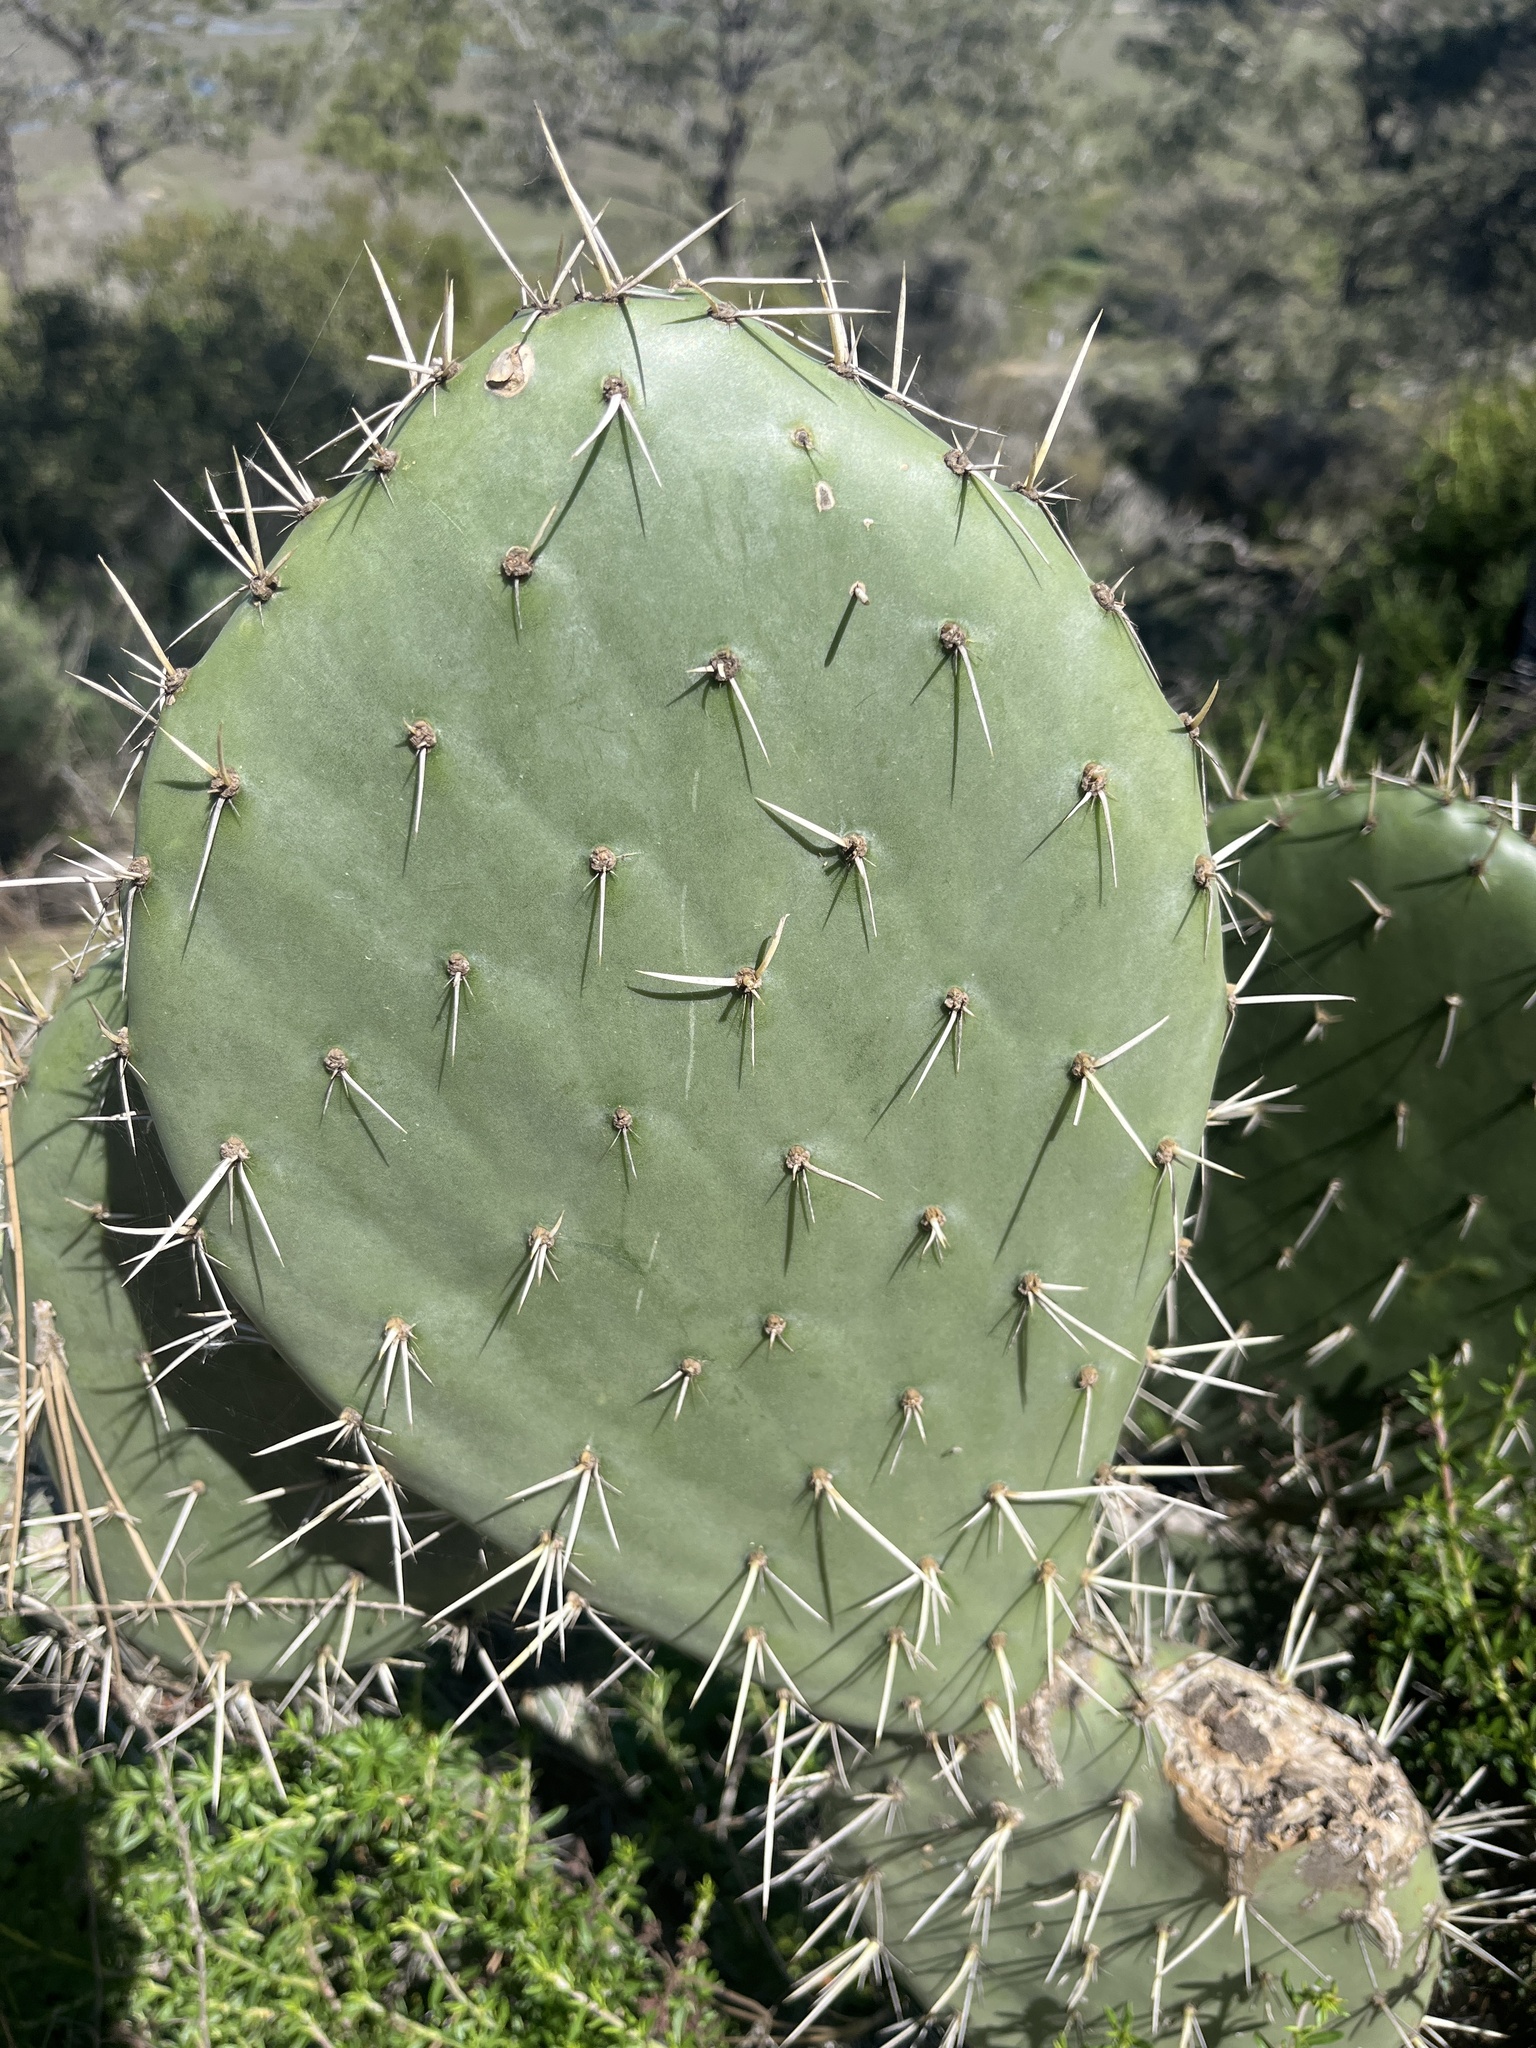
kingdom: Plantae
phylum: Tracheophyta
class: Magnoliopsida
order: Caryophyllales
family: Cactaceae
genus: Opuntia
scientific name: Opuntia ficus-indica
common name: Barbary fig
